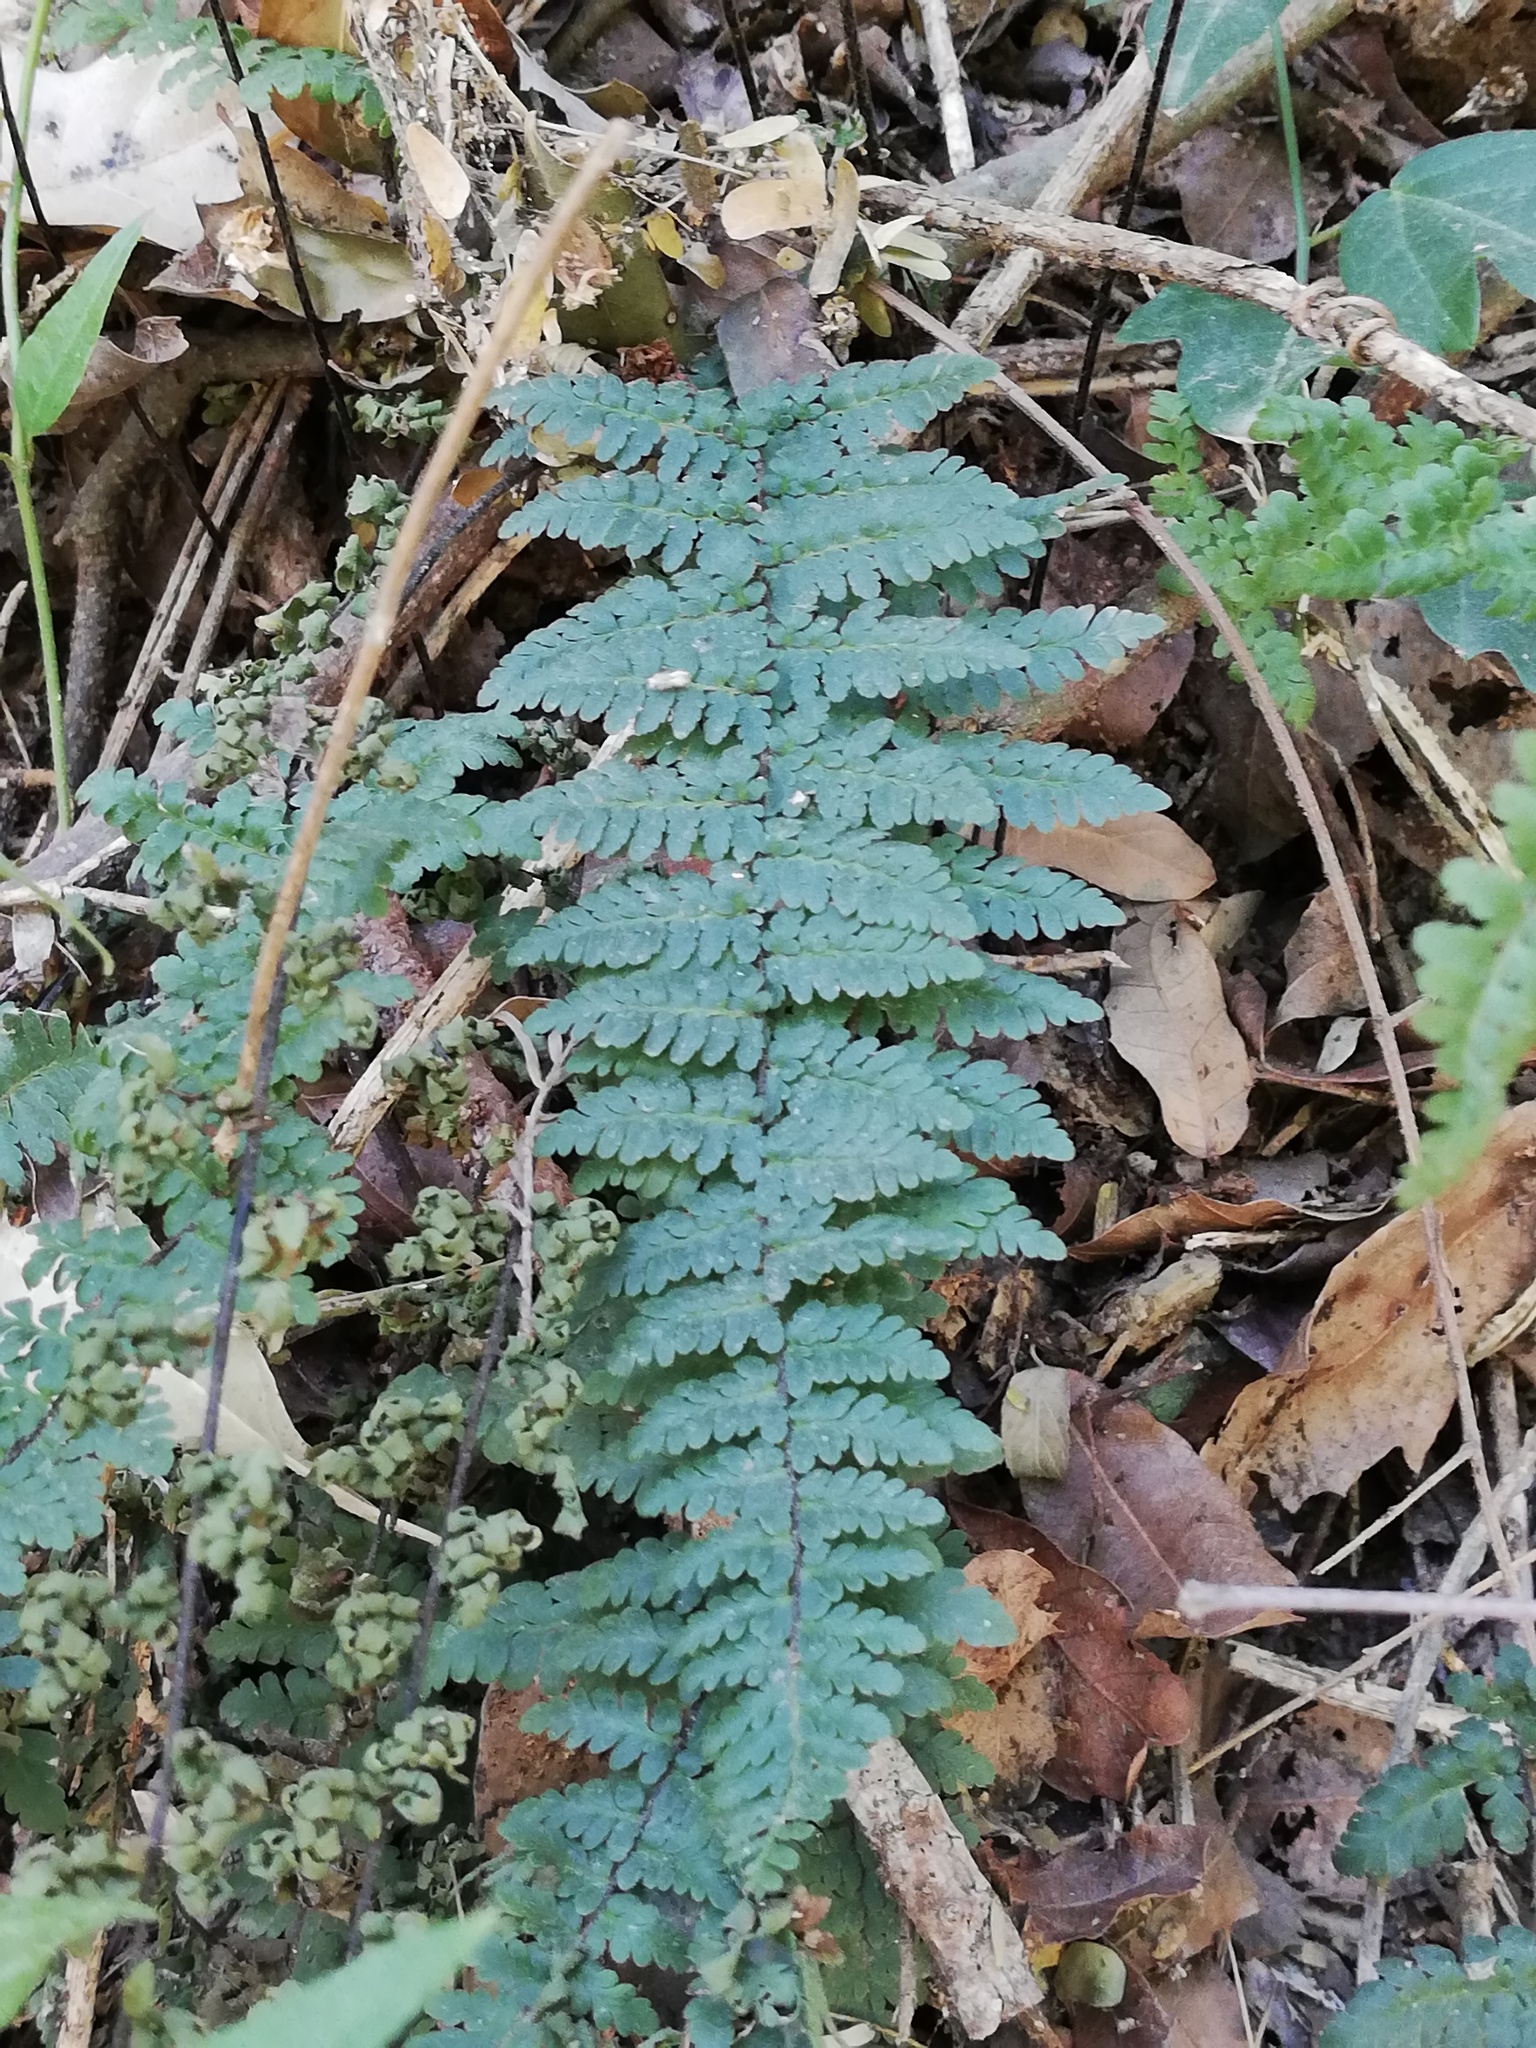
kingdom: Plantae
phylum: Tracheophyta
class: Polypodiopsida
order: Polypodiales
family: Pteridaceae
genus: Myriopteris
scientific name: Myriopteris alabamensis
